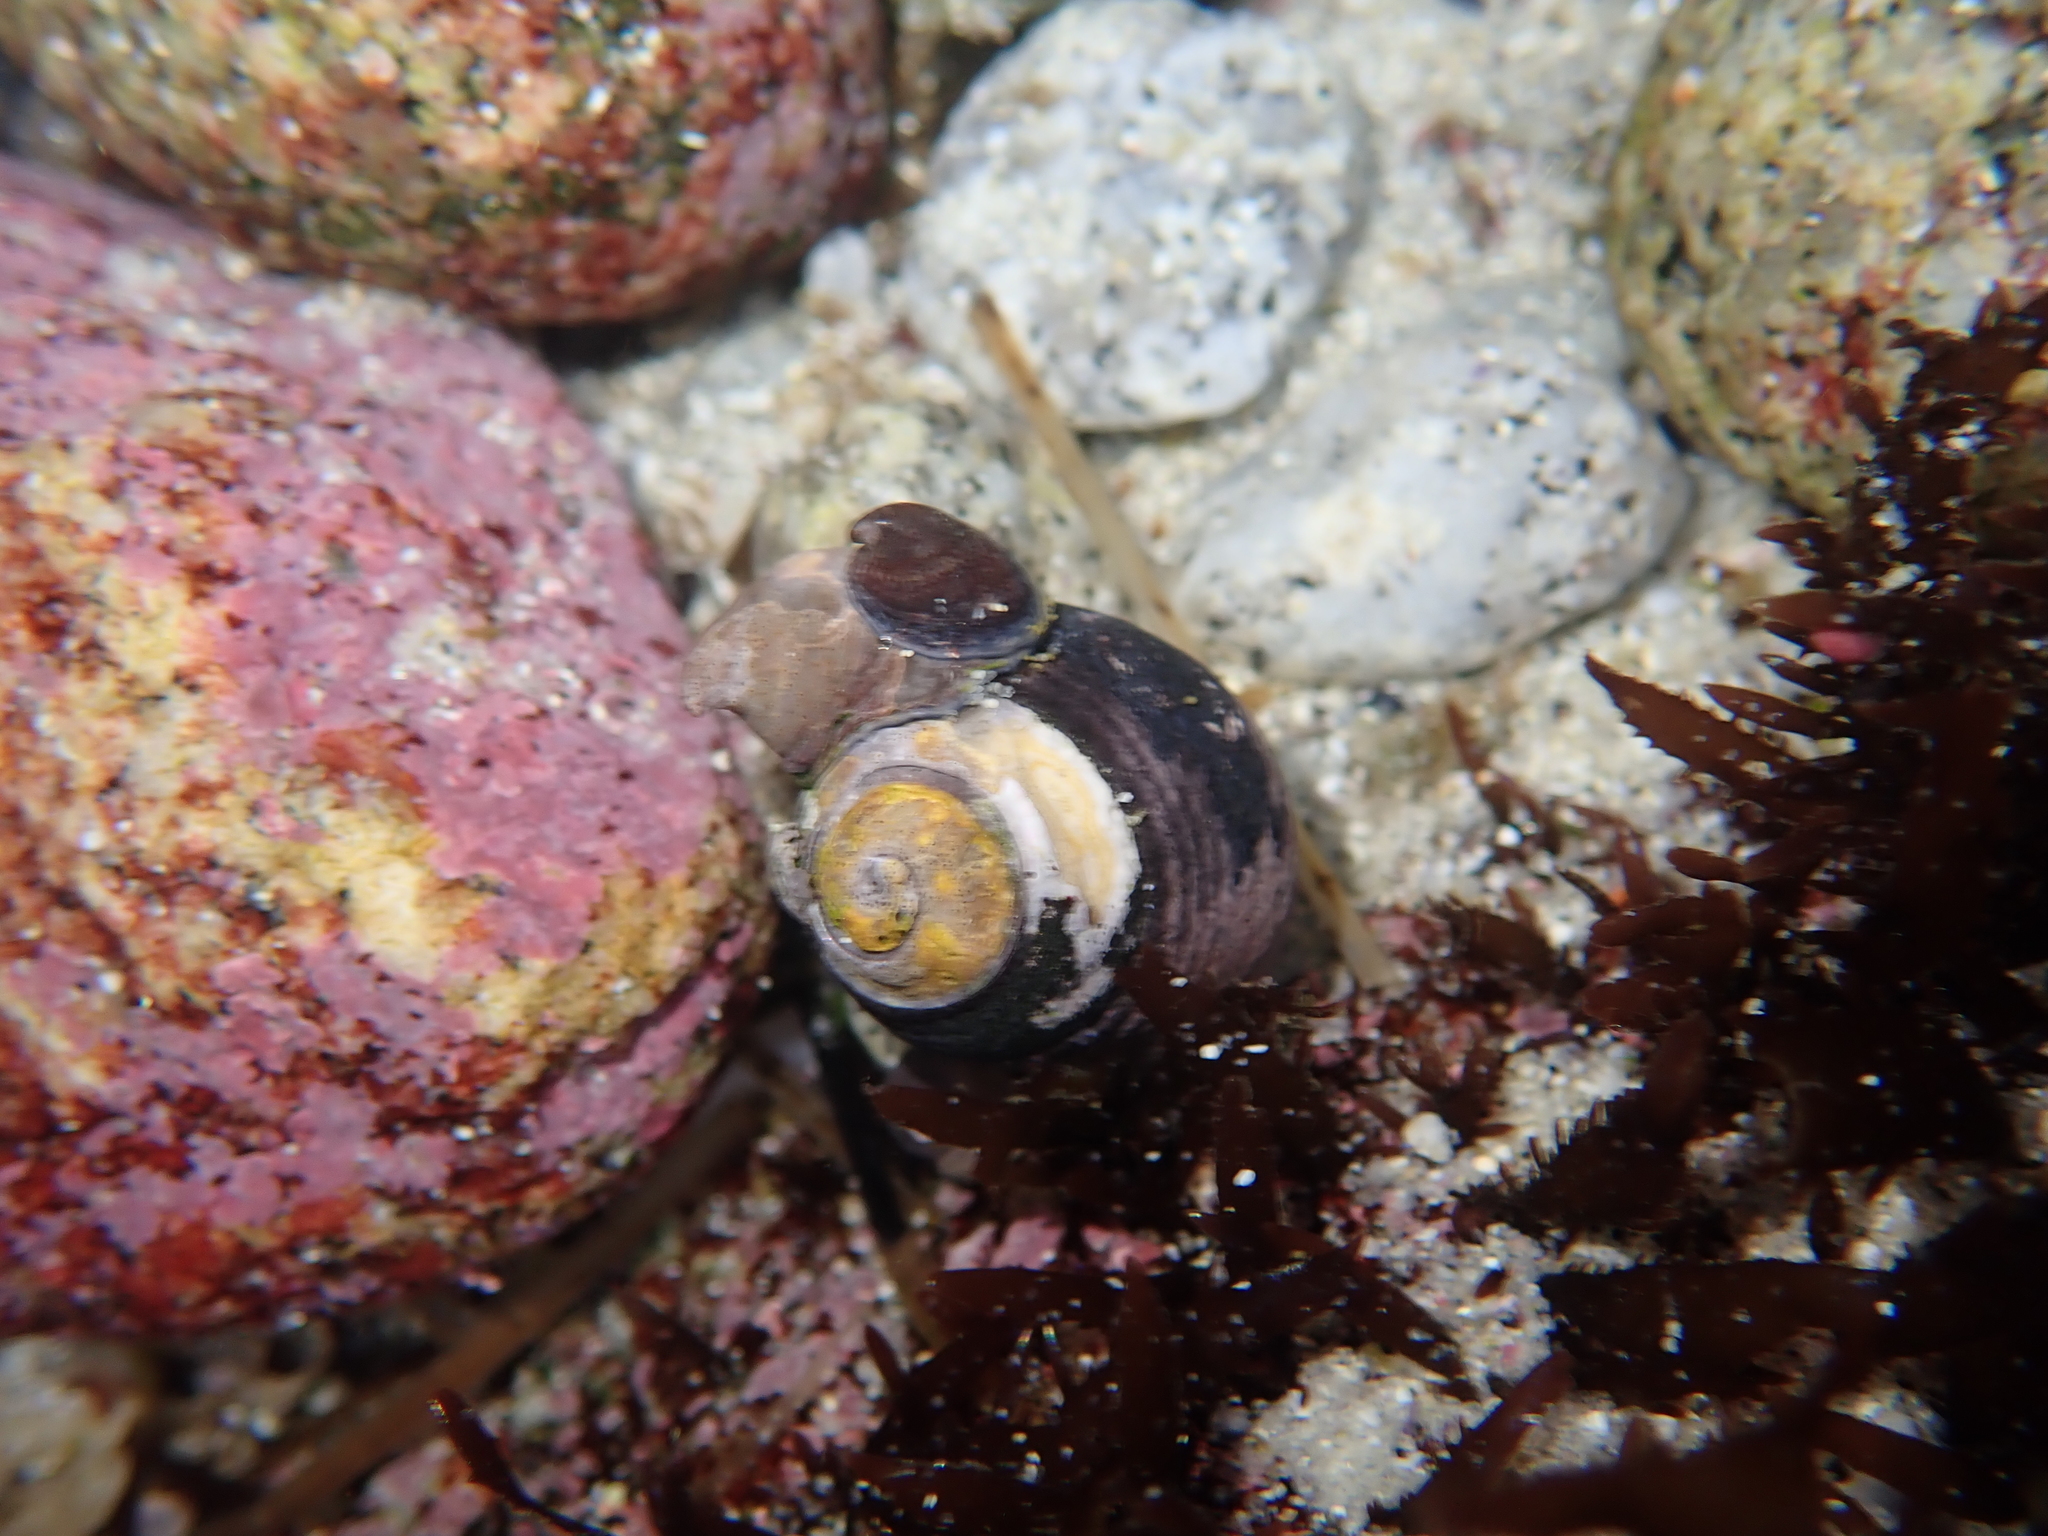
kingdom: Animalia
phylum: Mollusca
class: Gastropoda
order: Trochida
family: Tegulidae
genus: Tegula
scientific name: Tegula funebralis
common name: Black tegula
